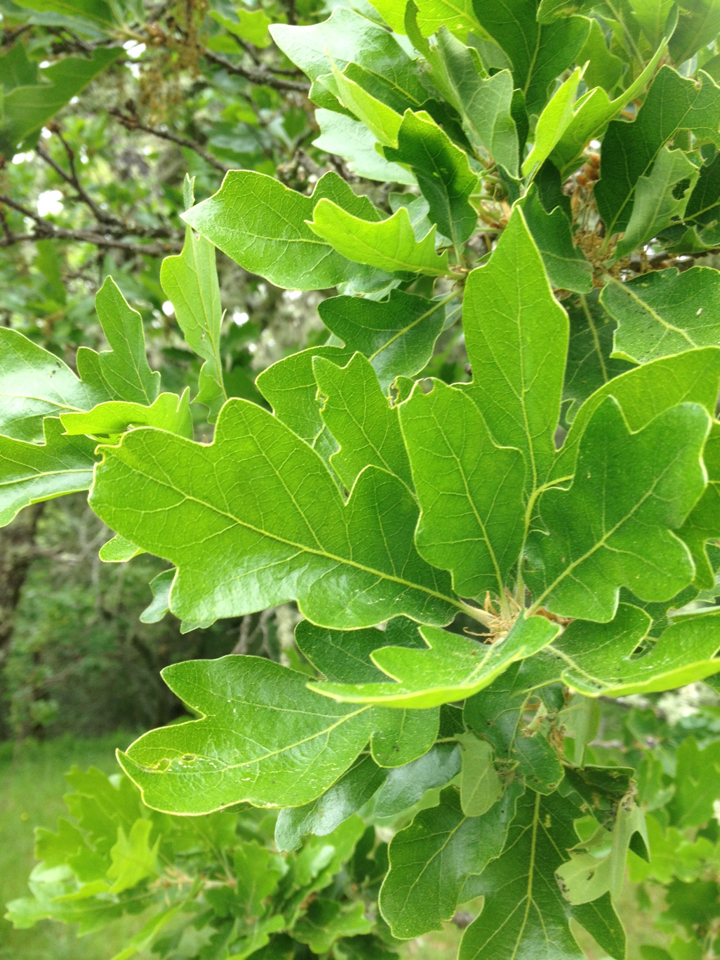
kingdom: Plantae
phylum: Tracheophyta
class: Magnoliopsida
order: Fagales
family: Fagaceae
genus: Quercus
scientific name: Quercus garryana
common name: Garry oak
